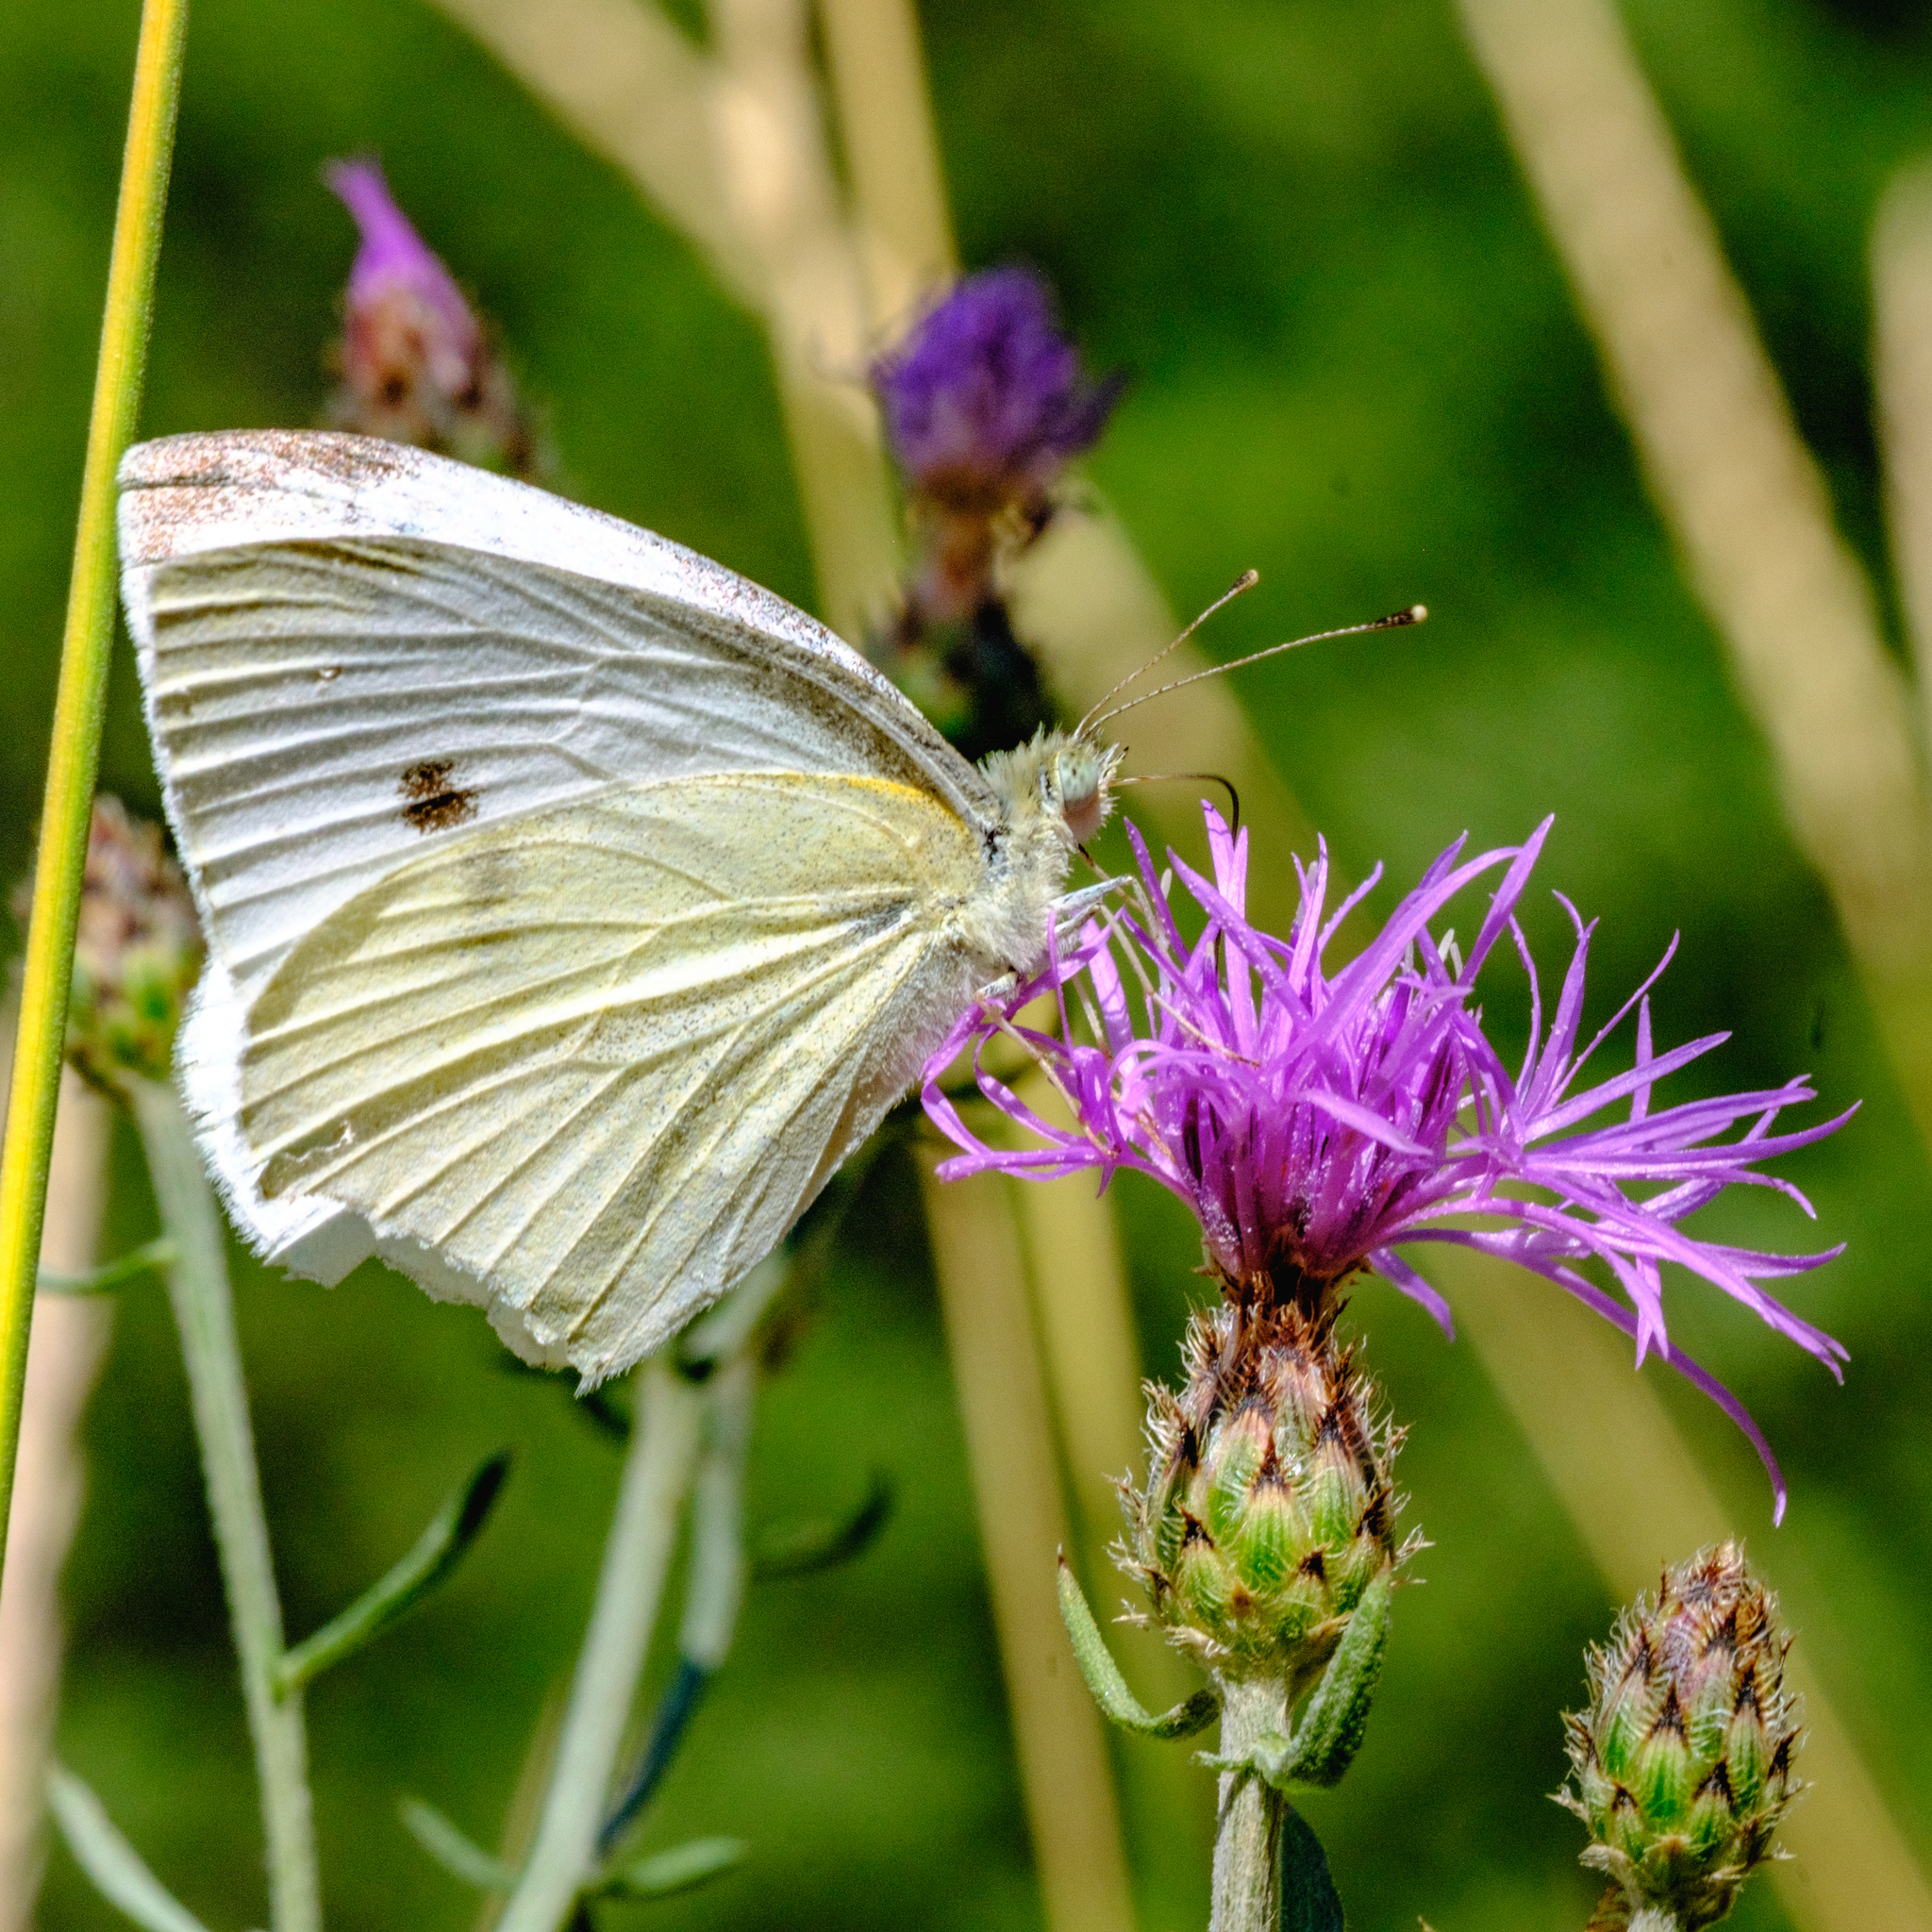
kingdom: Animalia
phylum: Arthropoda
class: Insecta
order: Lepidoptera
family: Pieridae
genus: Pieris
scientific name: Pieris rapae
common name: Small white
